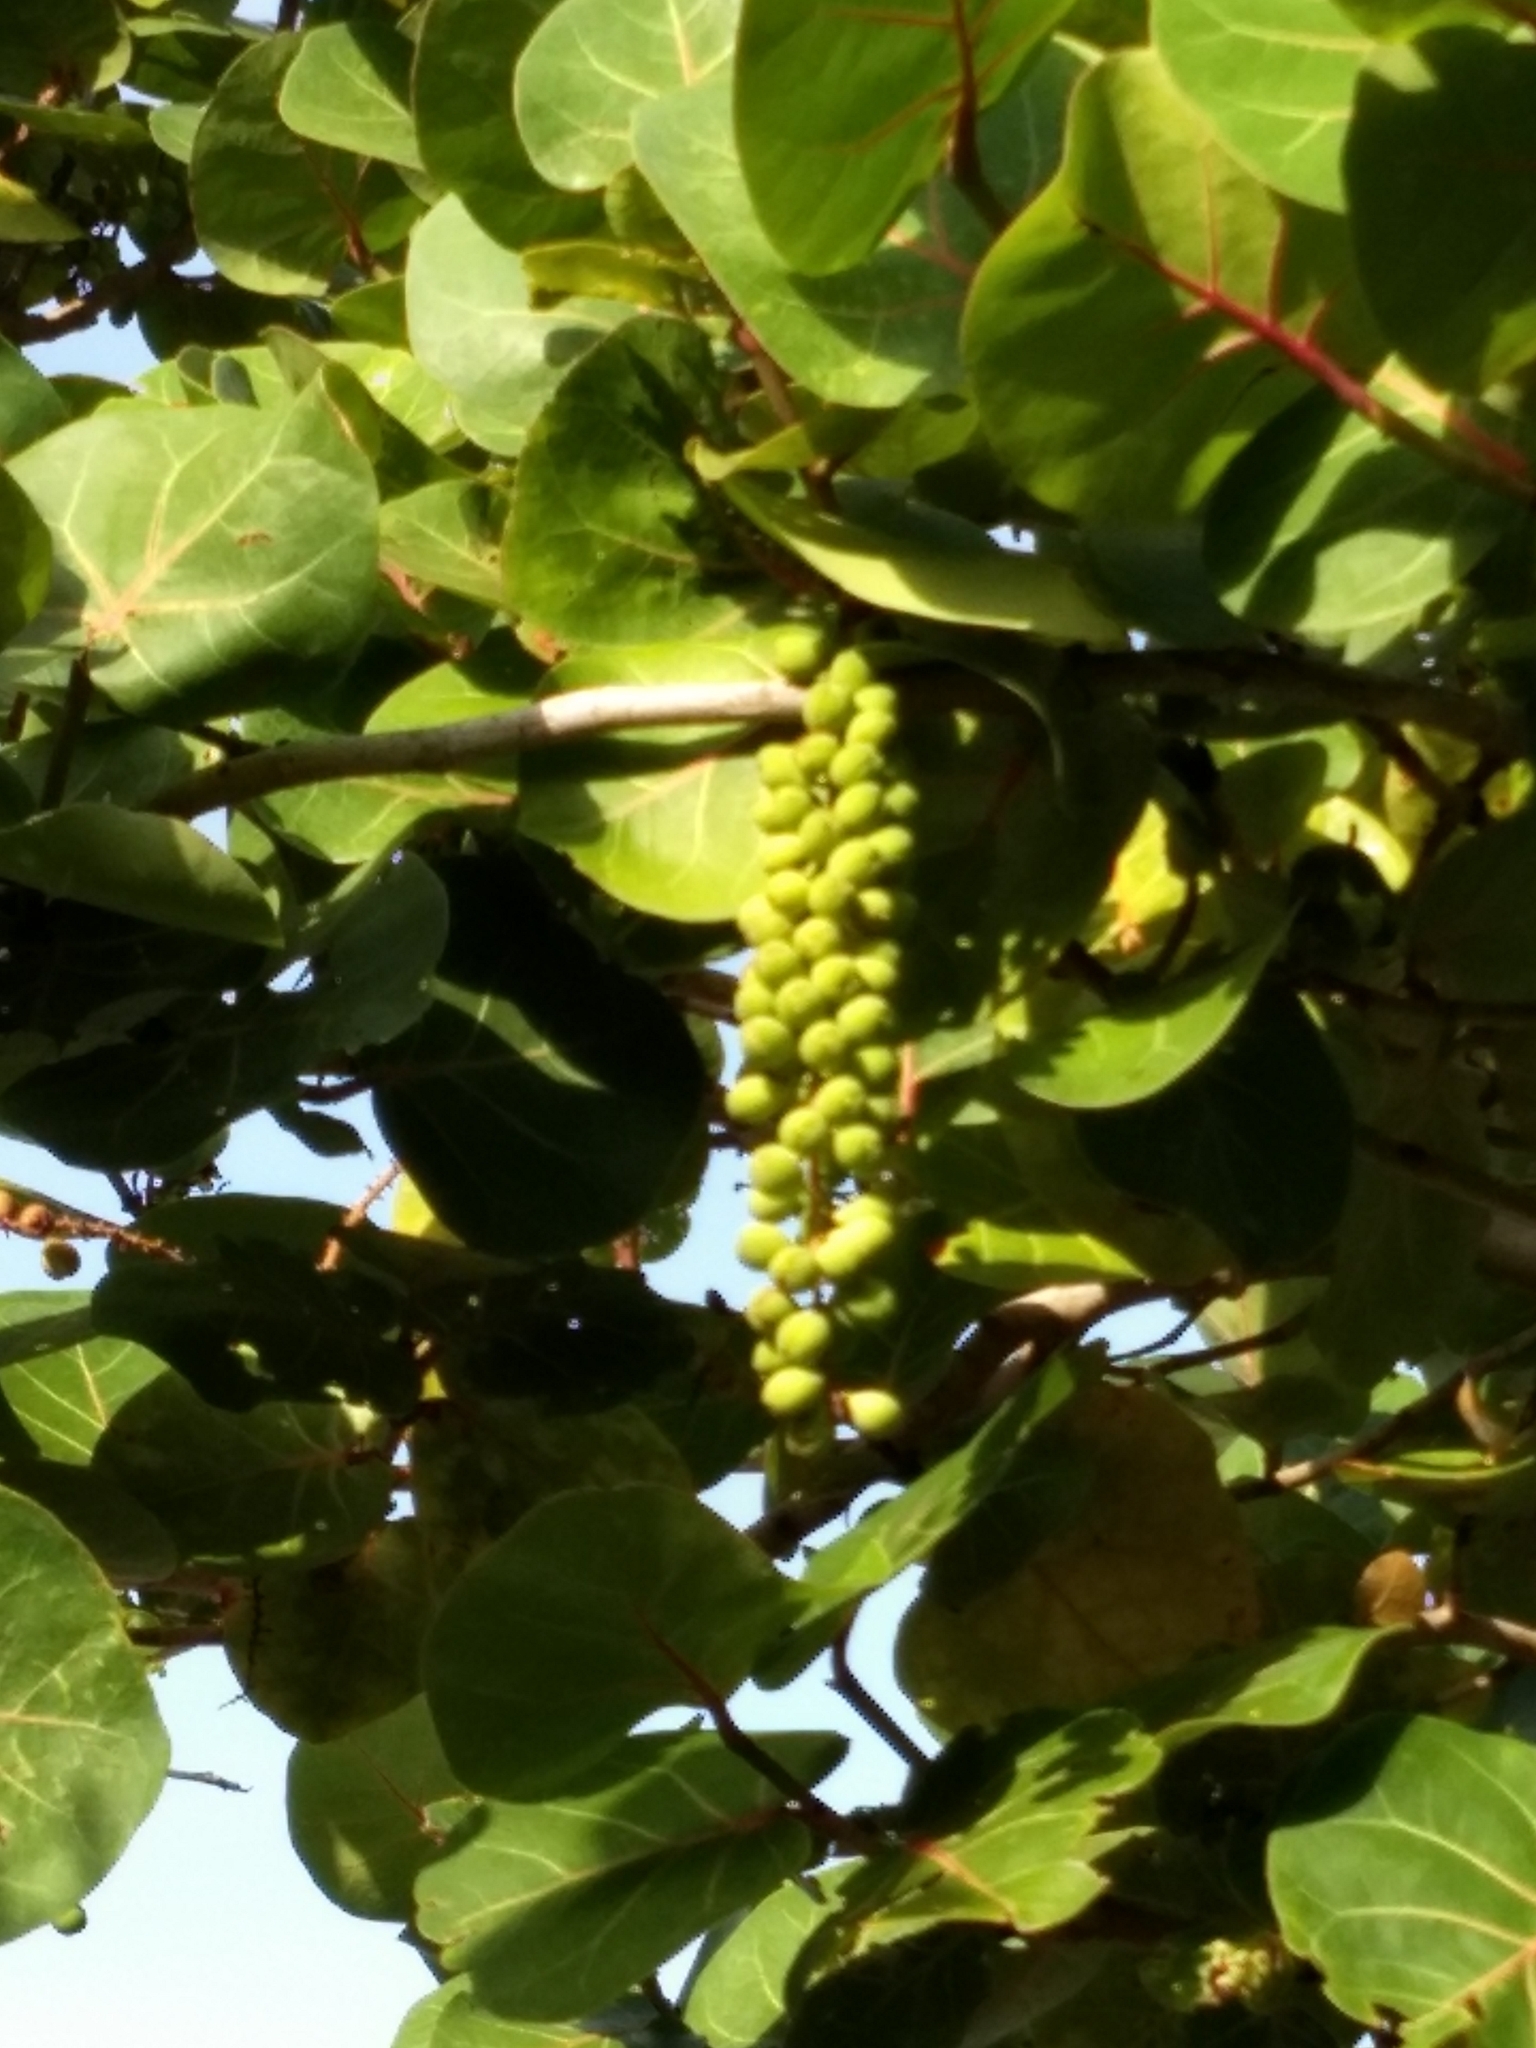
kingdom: Plantae
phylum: Tracheophyta
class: Magnoliopsida
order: Caryophyllales
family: Polygonaceae
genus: Coccoloba
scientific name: Coccoloba uvifera
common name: Seagrape
